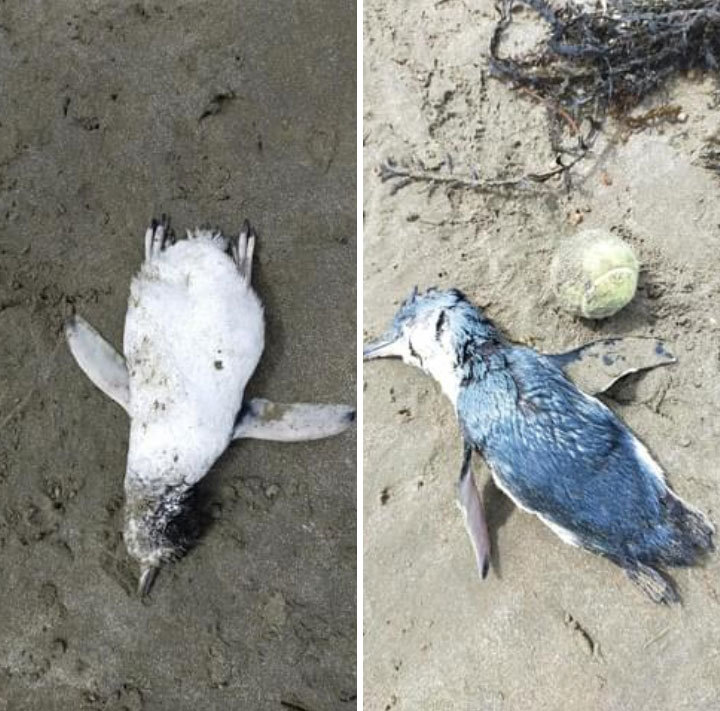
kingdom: Animalia
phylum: Chordata
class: Aves
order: Sphenisciformes
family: Spheniscidae
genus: Eudyptula
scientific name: Eudyptula minor
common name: Little penguin
